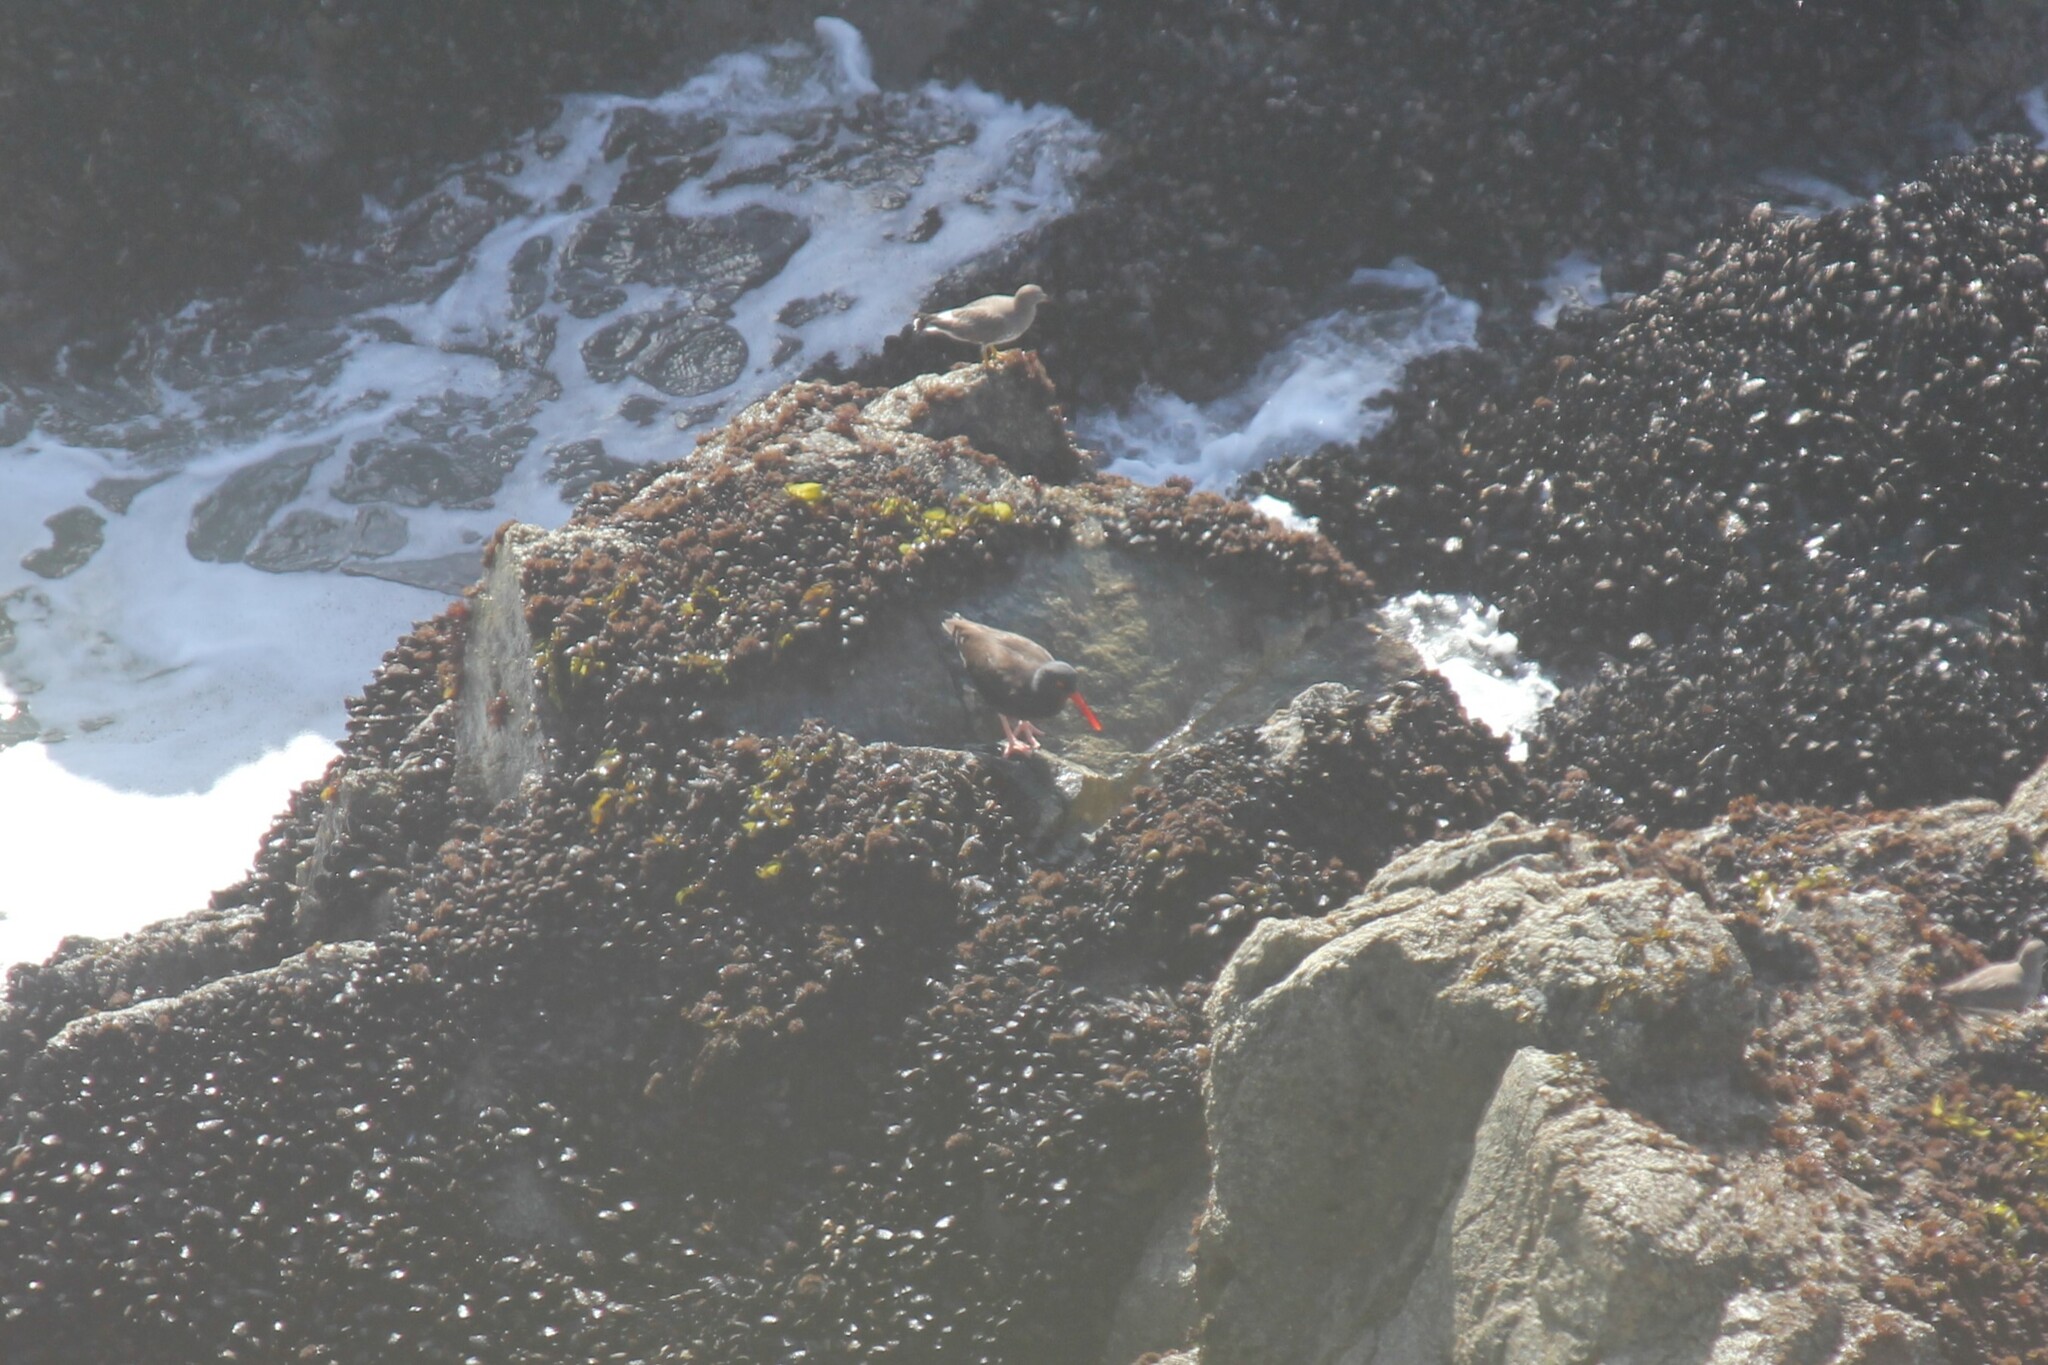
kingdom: Animalia
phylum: Chordata
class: Aves
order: Charadriiformes
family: Haematopodidae
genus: Haematopus
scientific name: Haematopus bachmani
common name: Black oystercatcher
